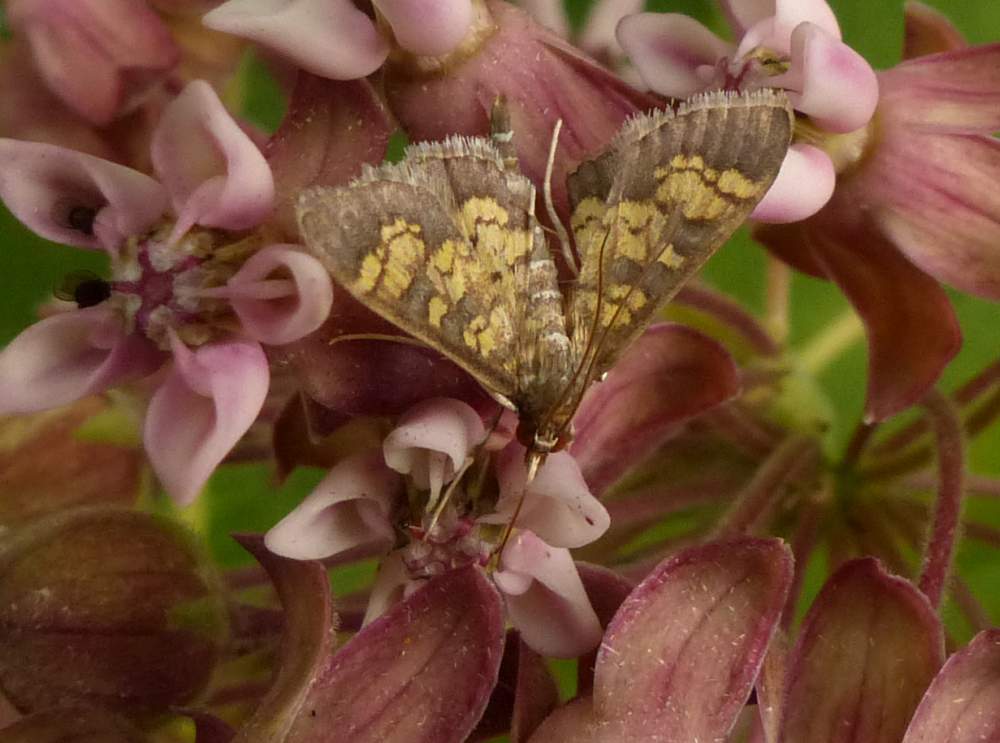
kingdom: Animalia
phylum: Arthropoda
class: Insecta
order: Lepidoptera
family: Crambidae
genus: Epipagis
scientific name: Epipagis adipaloides
